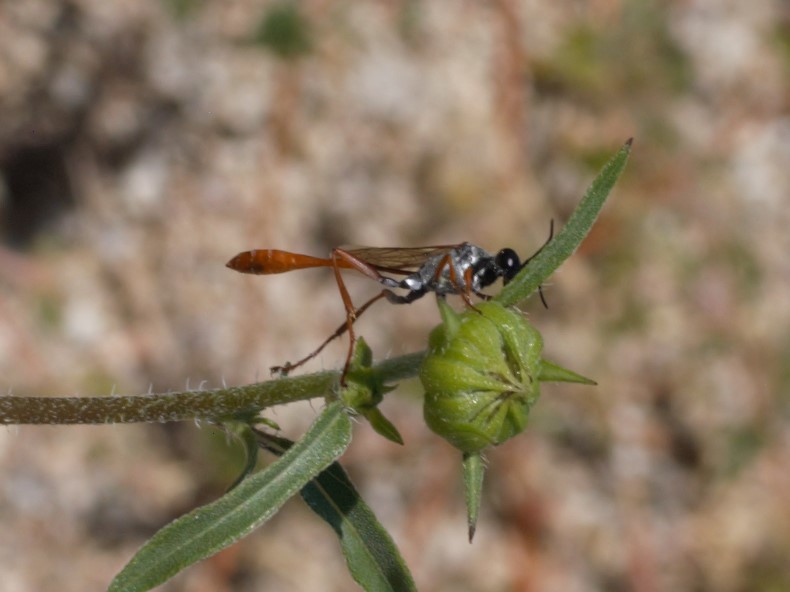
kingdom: Animalia
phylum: Arthropoda
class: Insecta
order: Hymenoptera
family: Sphecidae
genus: Ammophila
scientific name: Ammophila aberti
